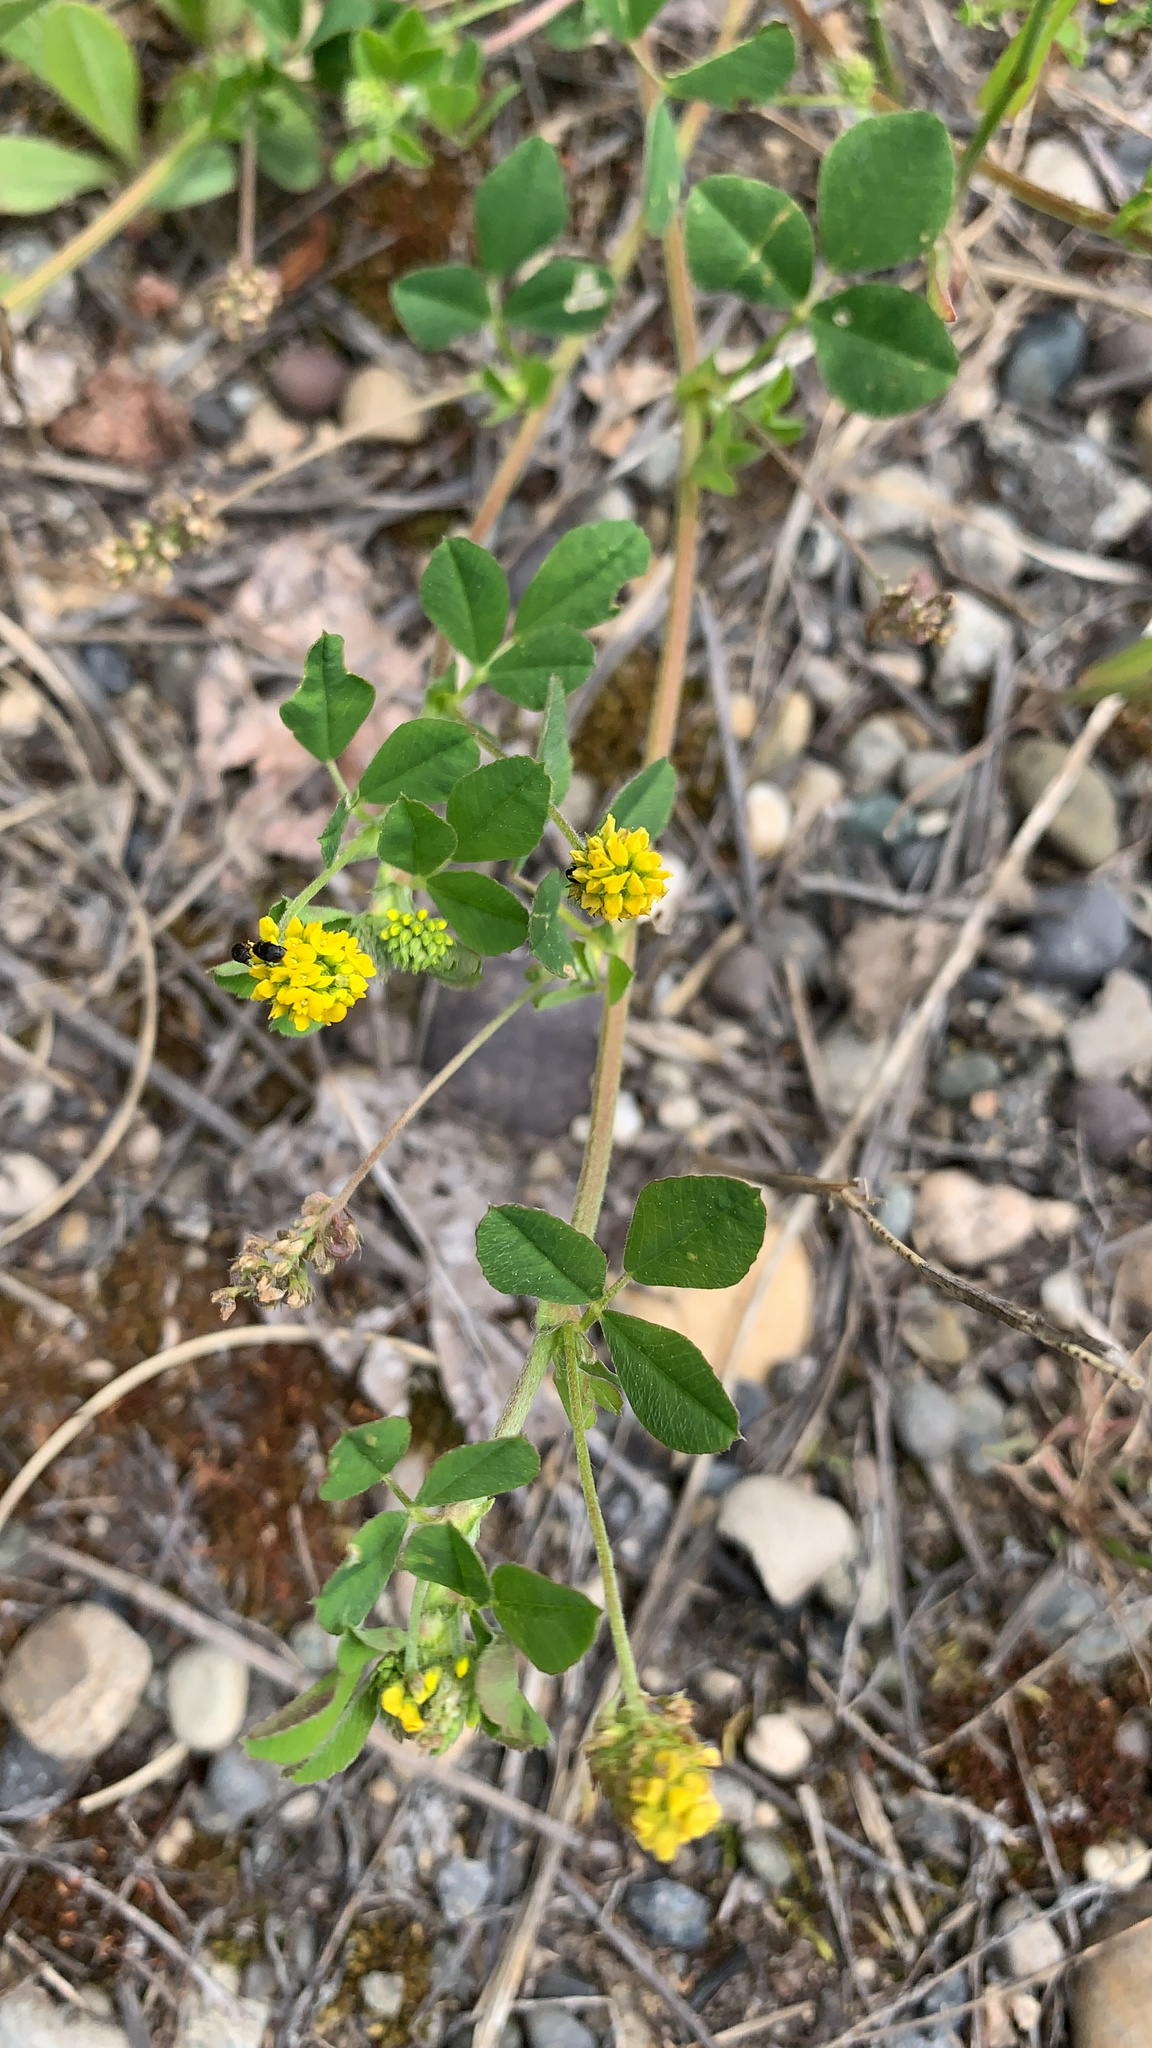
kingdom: Plantae
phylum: Tracheophyta
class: Magnoliopsida
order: Fabales
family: Fabaceae
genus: Medicago
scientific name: Medicago lupulina
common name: Black medick
